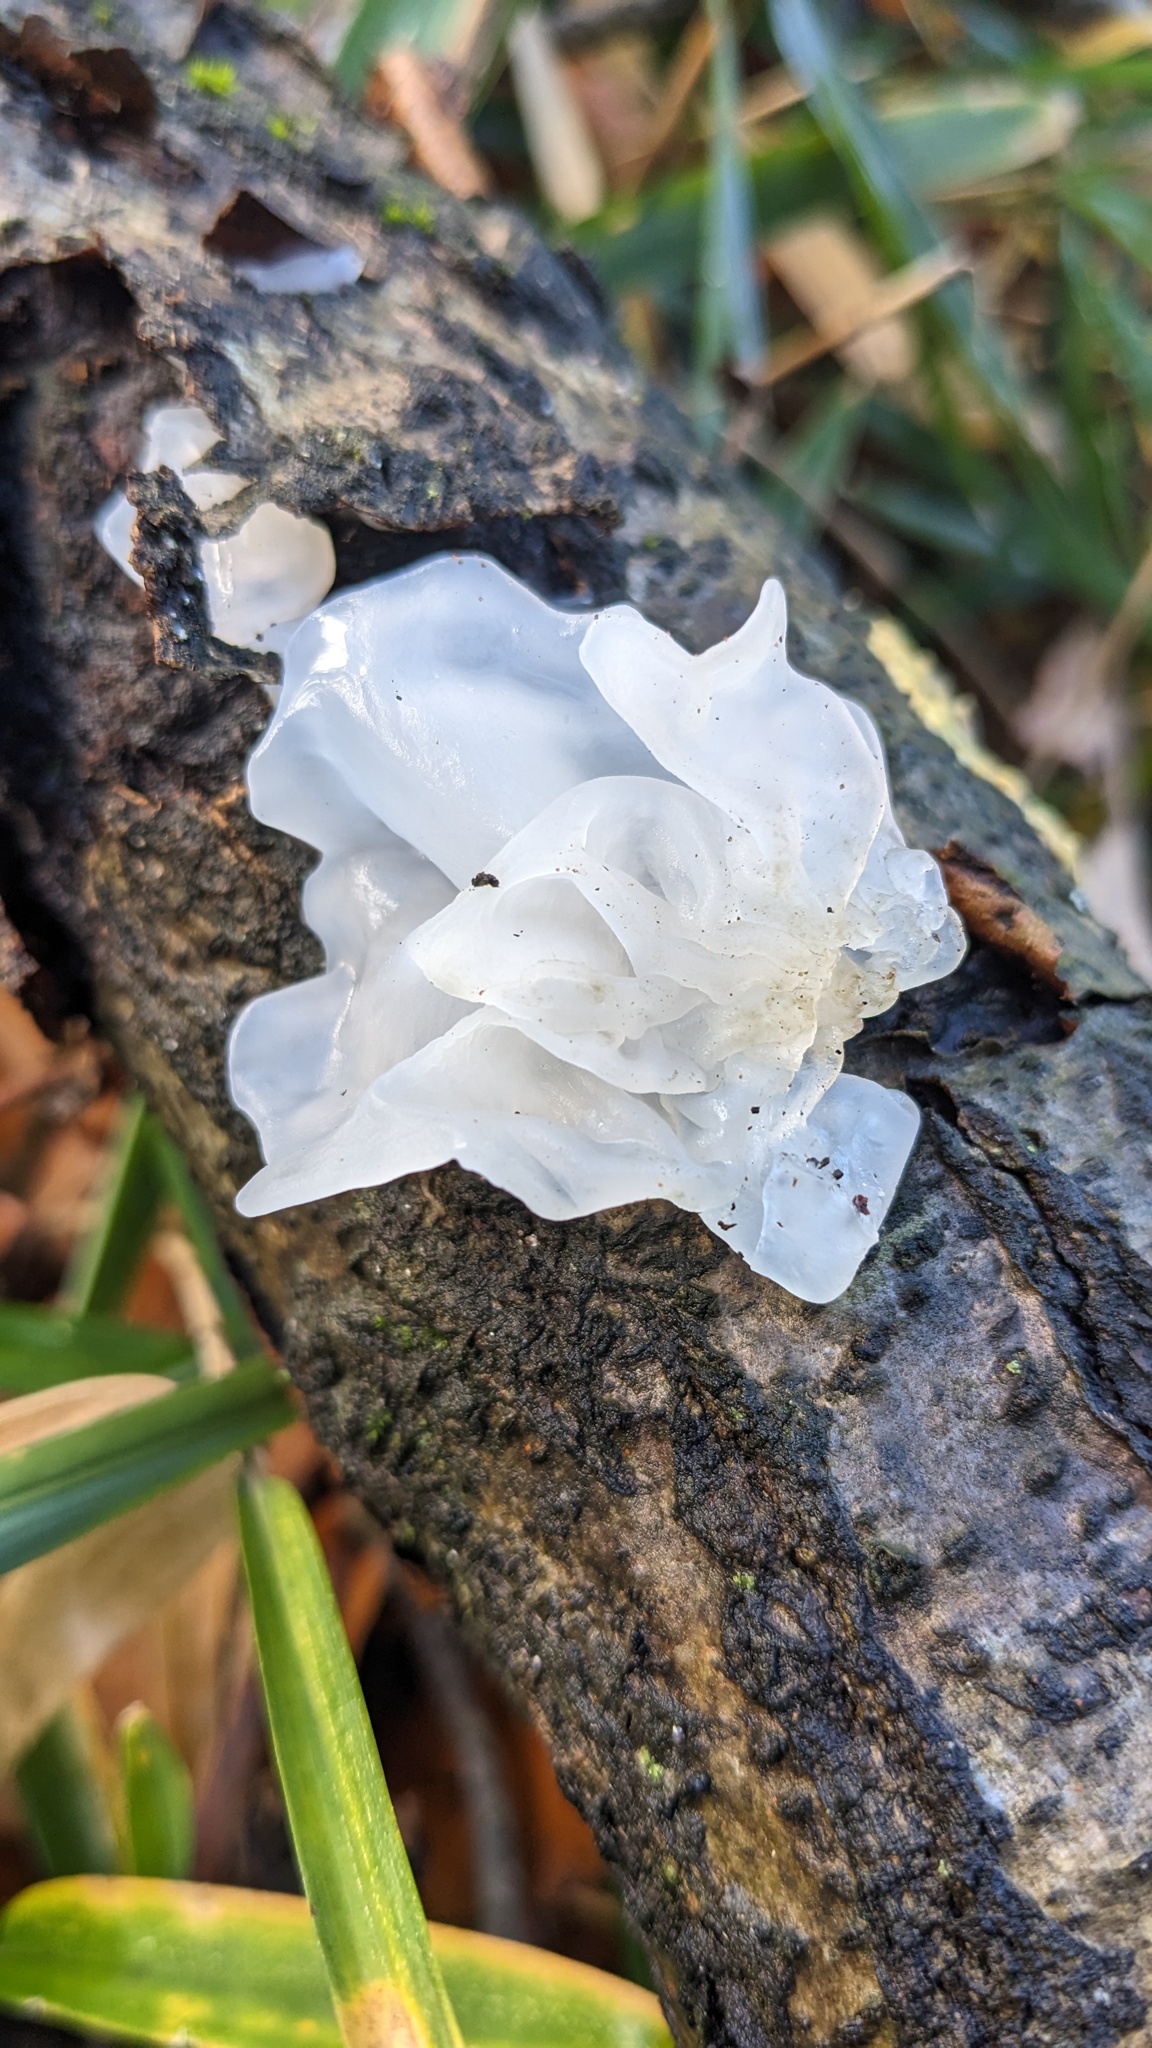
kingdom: Fungi
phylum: Basidiomycota
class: Tremellomycetes
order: Tremellales
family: Tremellaceae
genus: Tremella
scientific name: Tremella fuciformis
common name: Snow fungus
